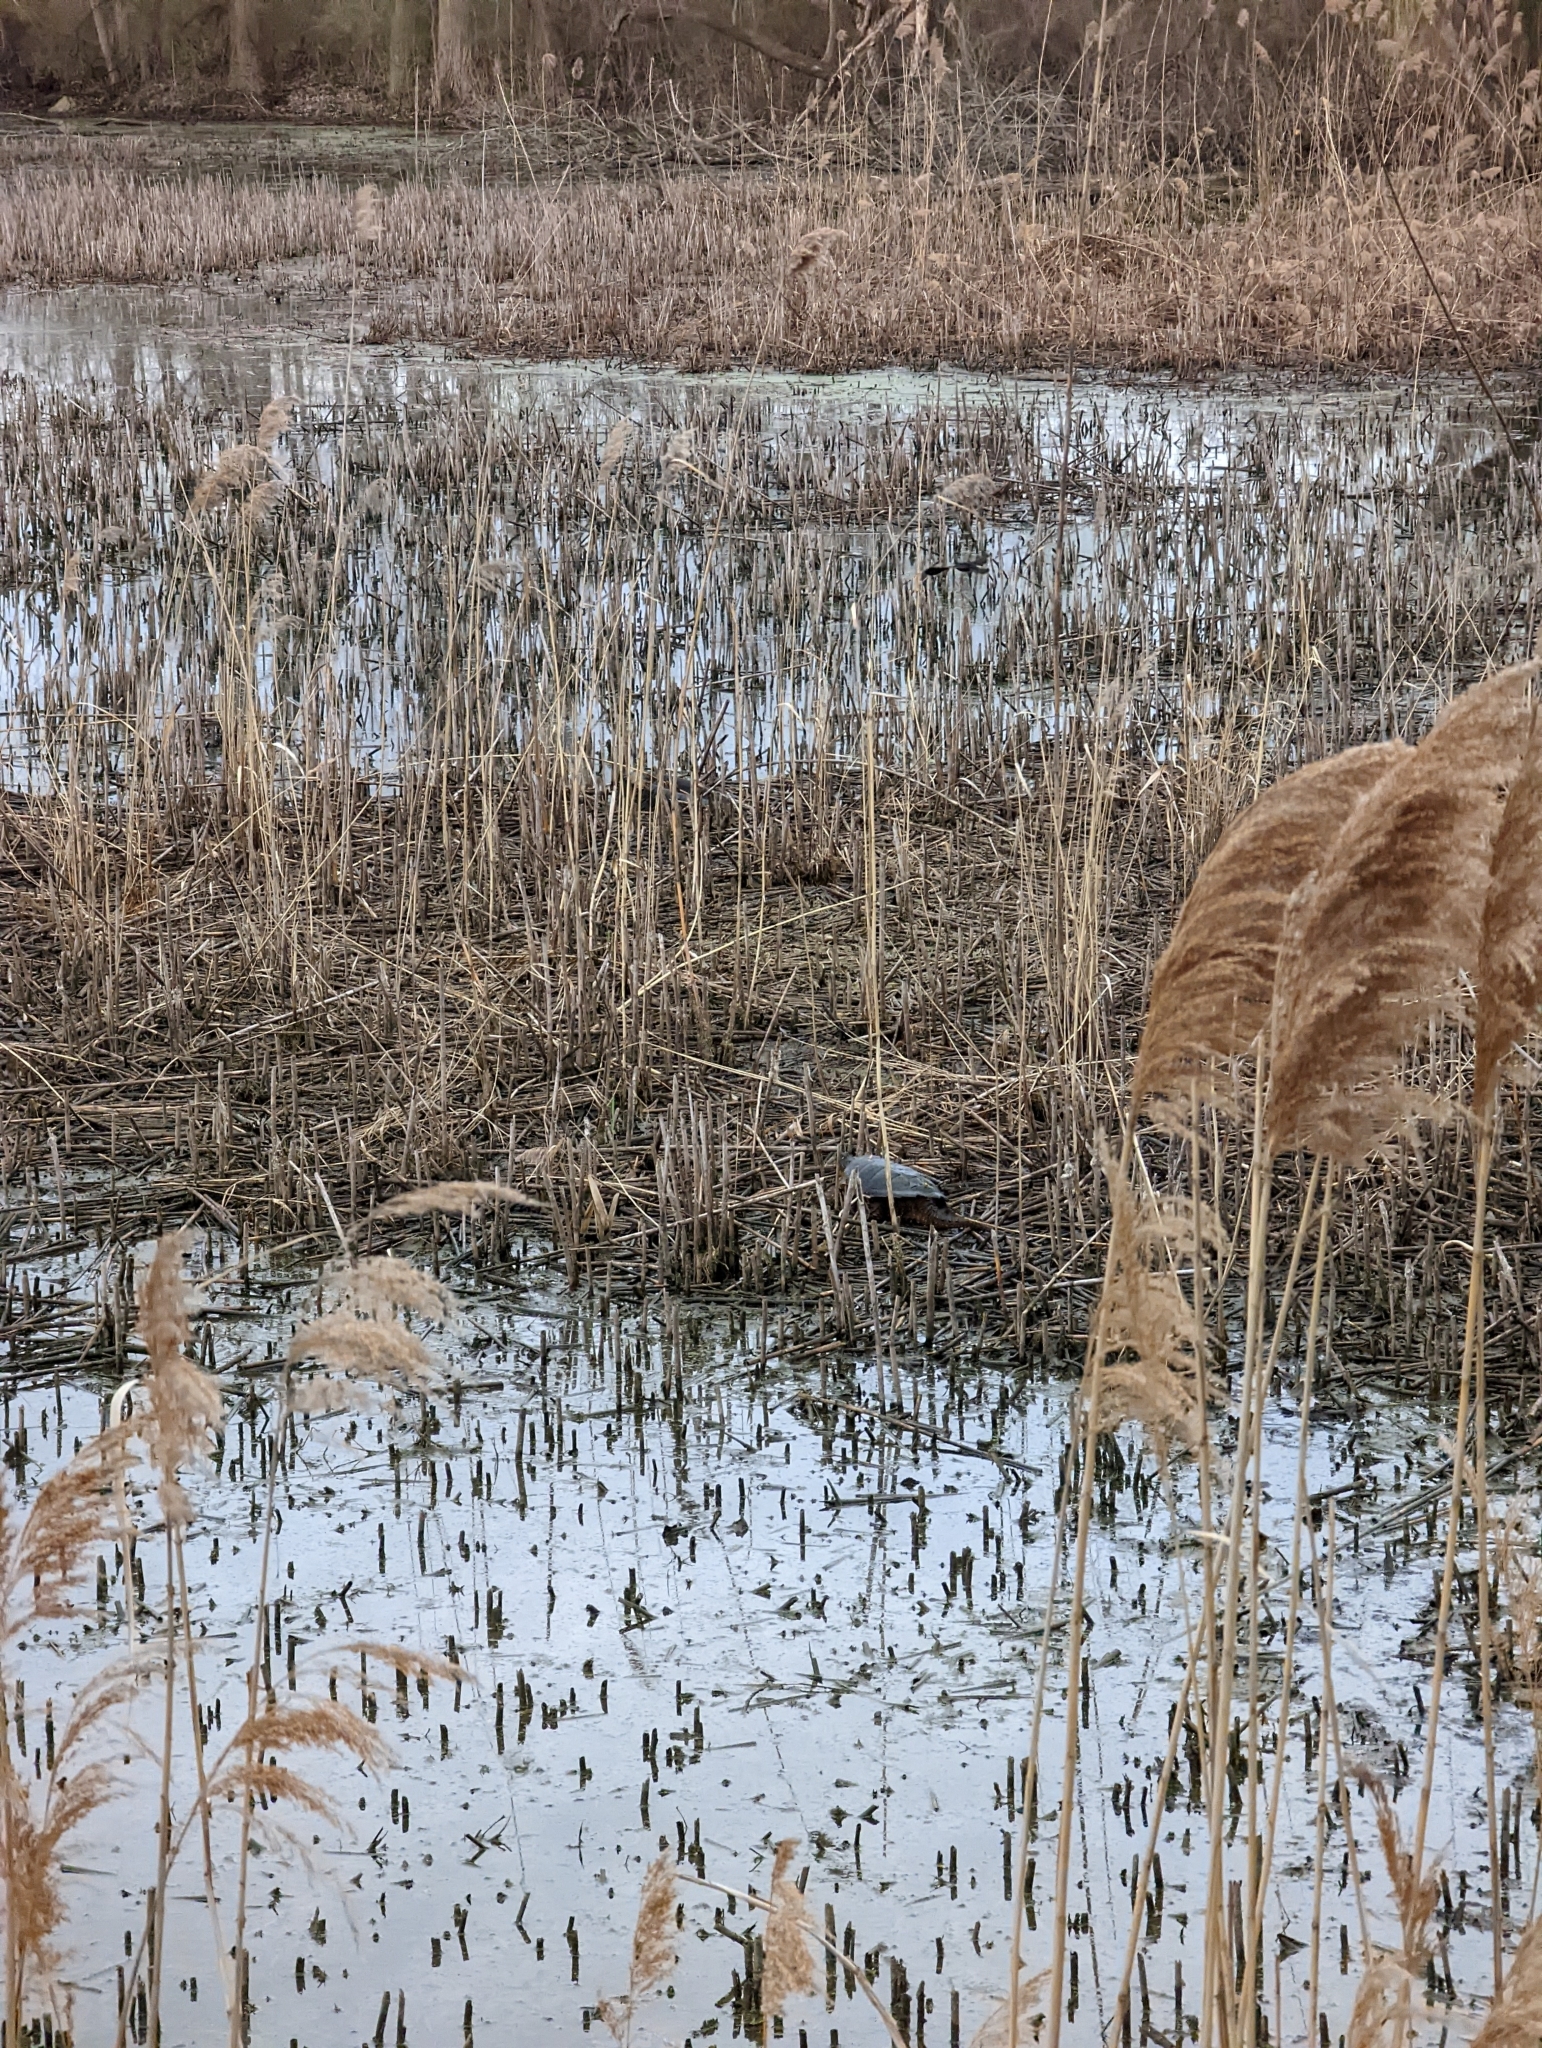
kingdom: Animalia
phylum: Chordata
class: Testudines
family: Chelydridae
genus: Chelydra
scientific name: Chelydra serpentina
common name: Common snapping turtle
